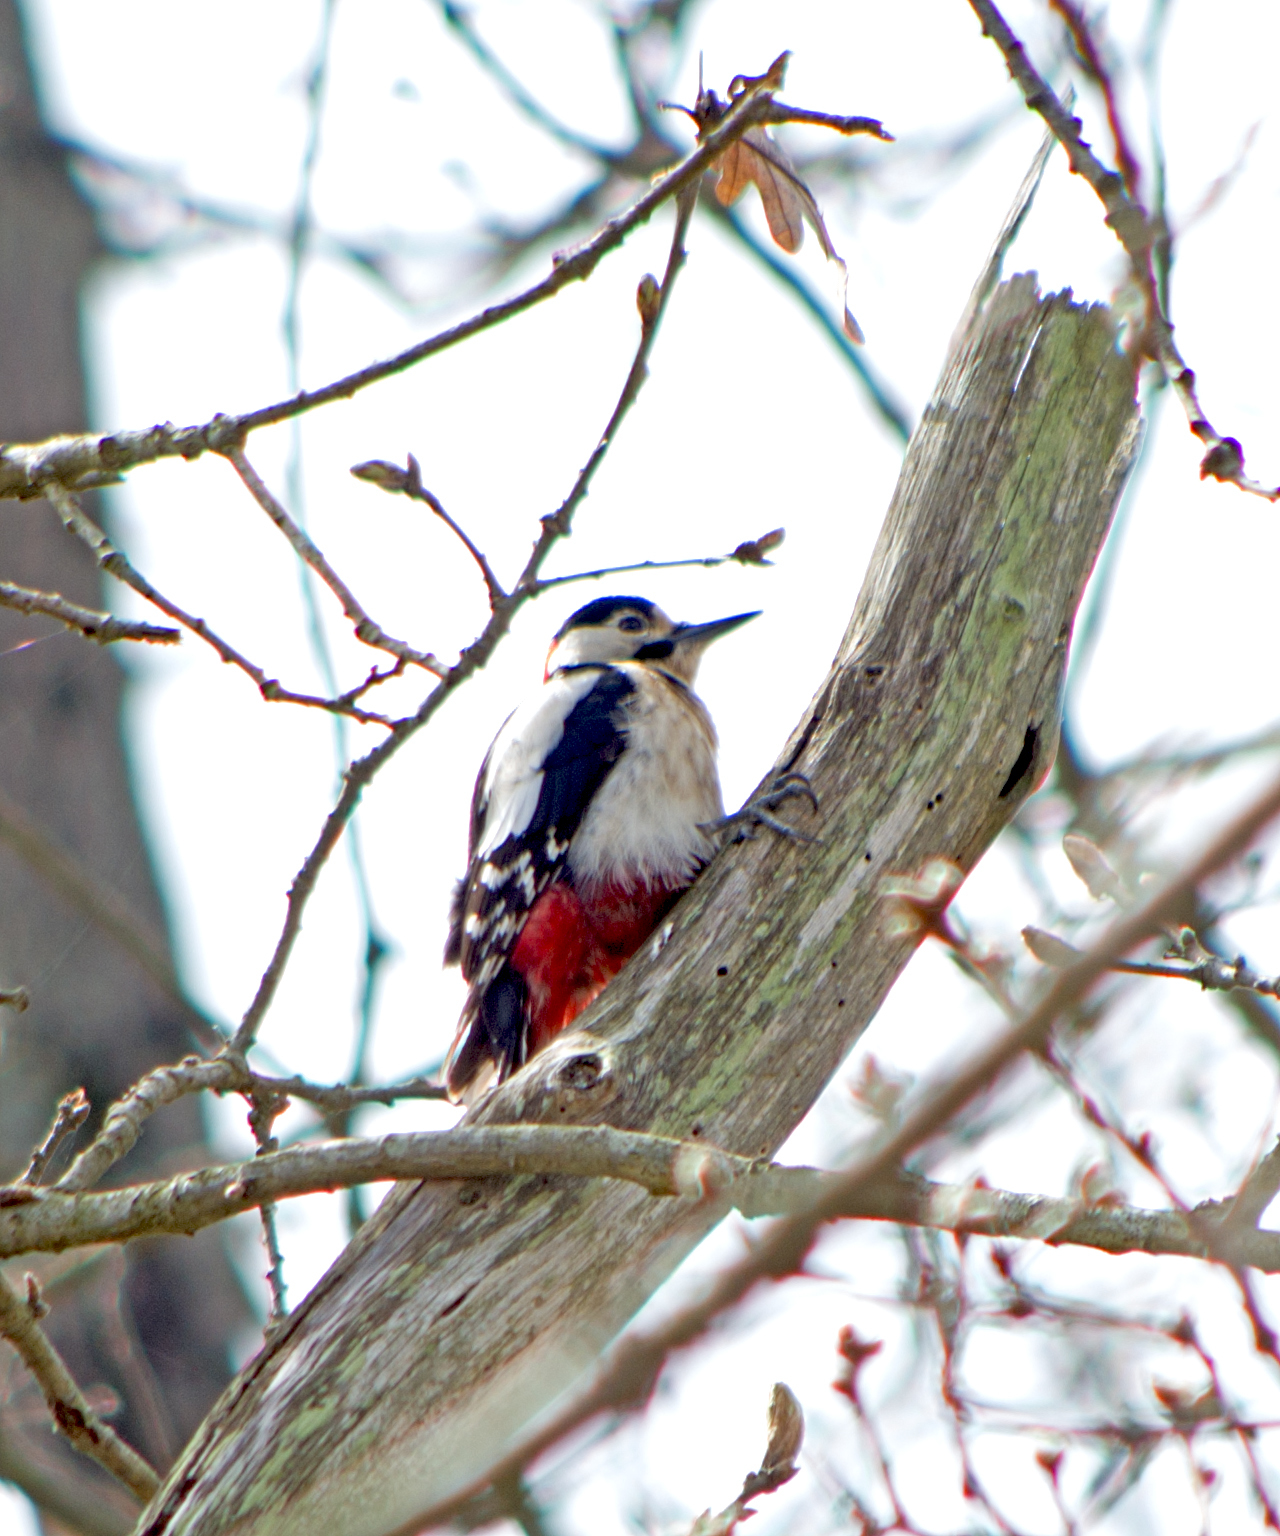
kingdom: Animalia
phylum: Chordata
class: Aves
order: Piciformes
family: Picidae
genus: Dendrocopos
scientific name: Dendrocopos major
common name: Great spotted woodpecker
